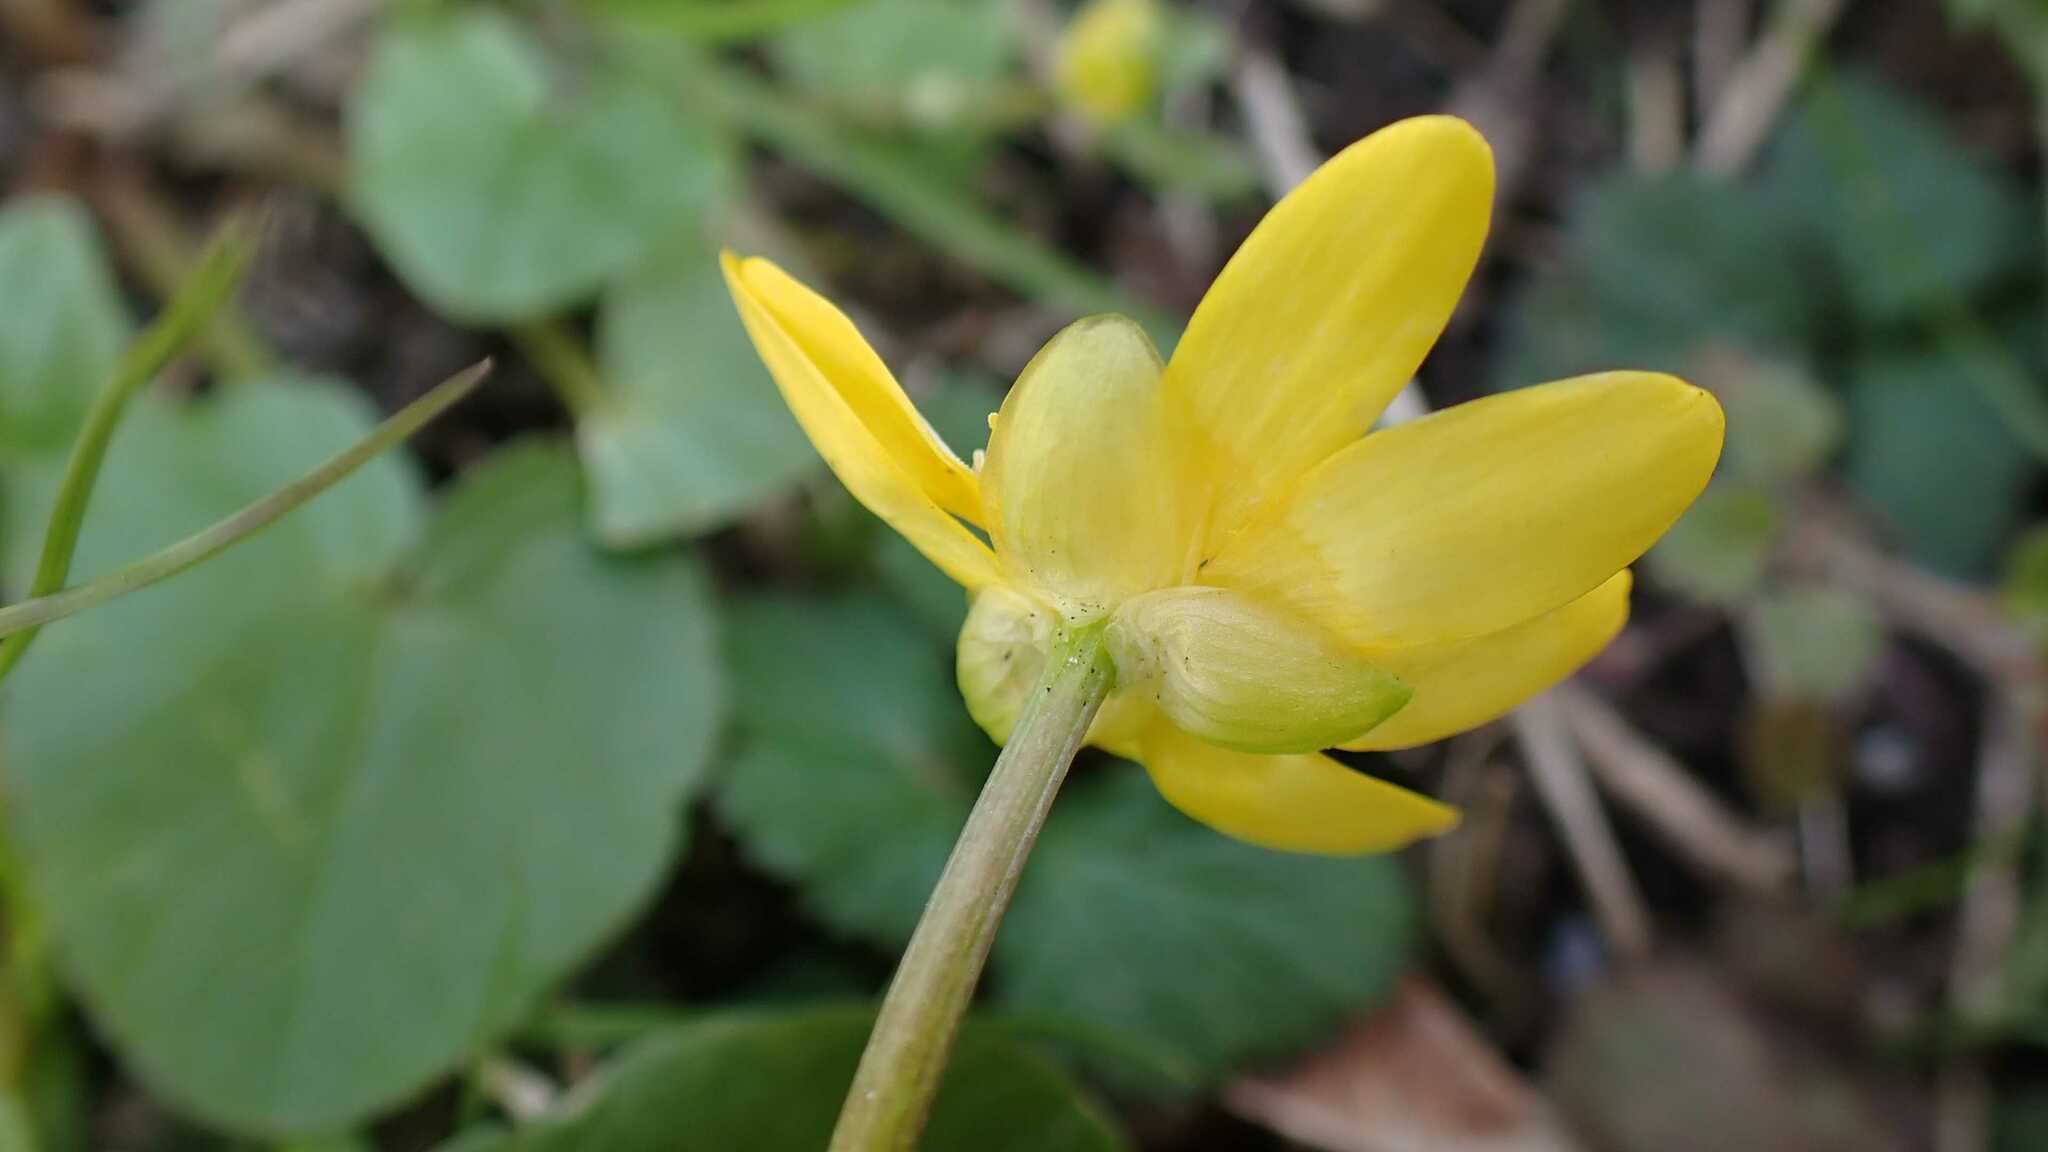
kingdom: Plantae
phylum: Tracheophyta
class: Magnoliopsida
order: Ranunculales
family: Ranunculaceae
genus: Ficaria
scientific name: Ficaria verna
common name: Lesser celandine
